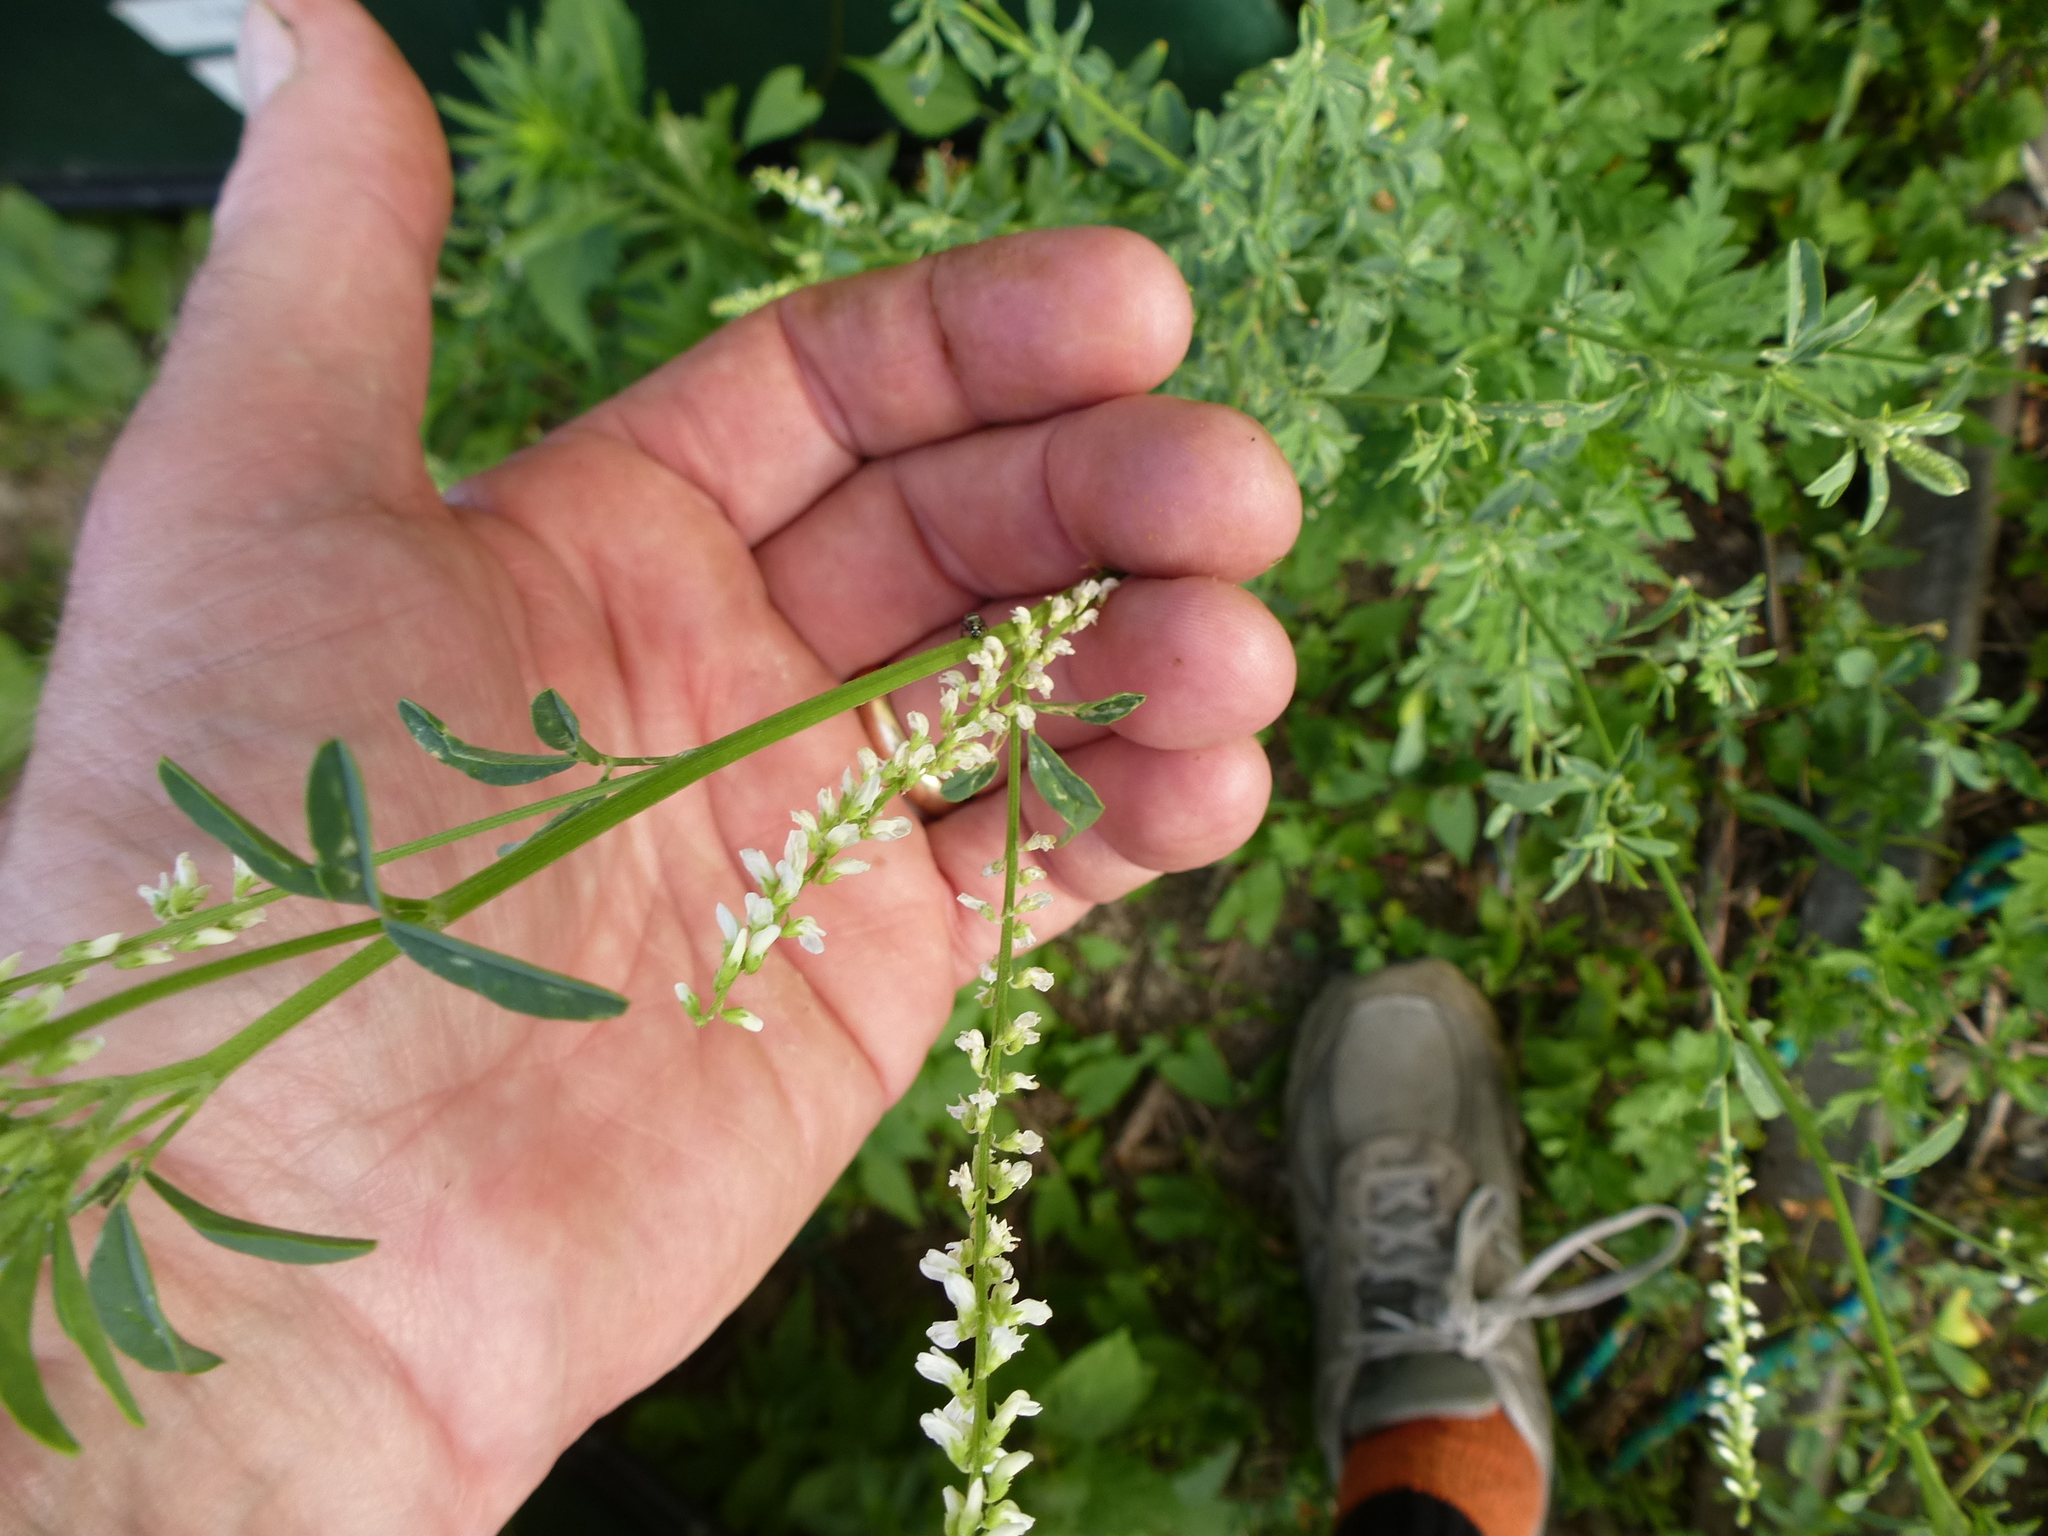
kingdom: Plantae
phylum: Tracheophyta
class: Magnoliopsida
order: Fabales
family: Fabaceae
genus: Melilotus
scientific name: Melilotus albus
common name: White melilot
